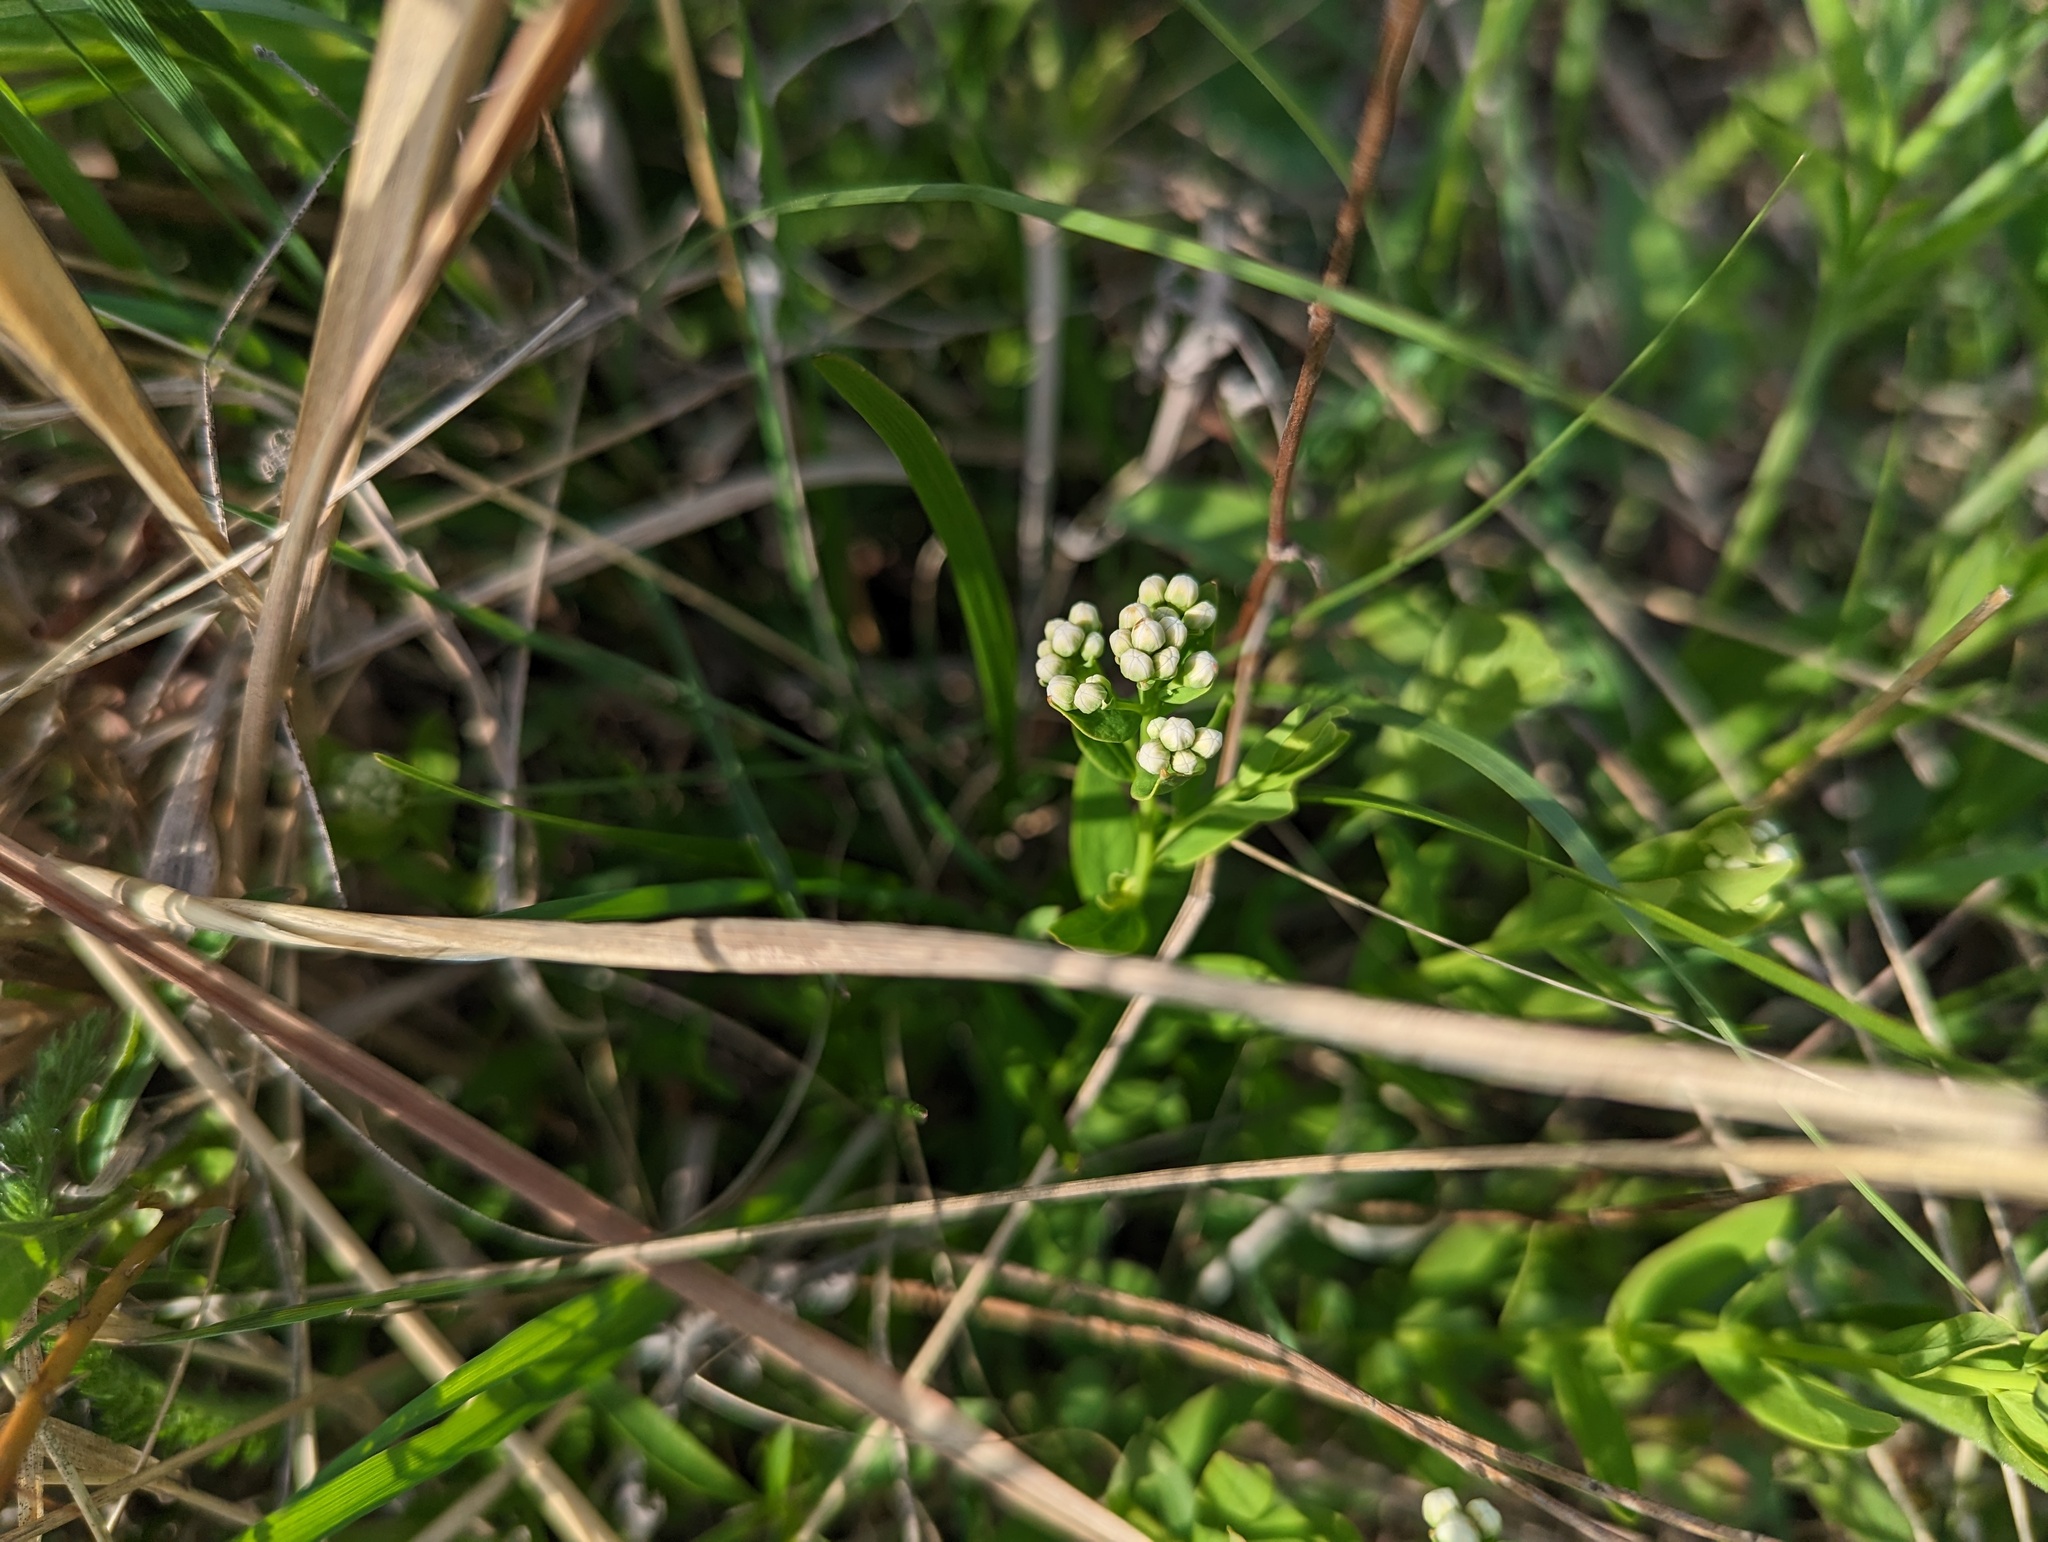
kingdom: Plantae
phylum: Tracheophyta
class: Magnoliopsida
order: Santalales
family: Comandraceae
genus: Comandra
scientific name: Comandra umbellata
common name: Bastard toadflax
